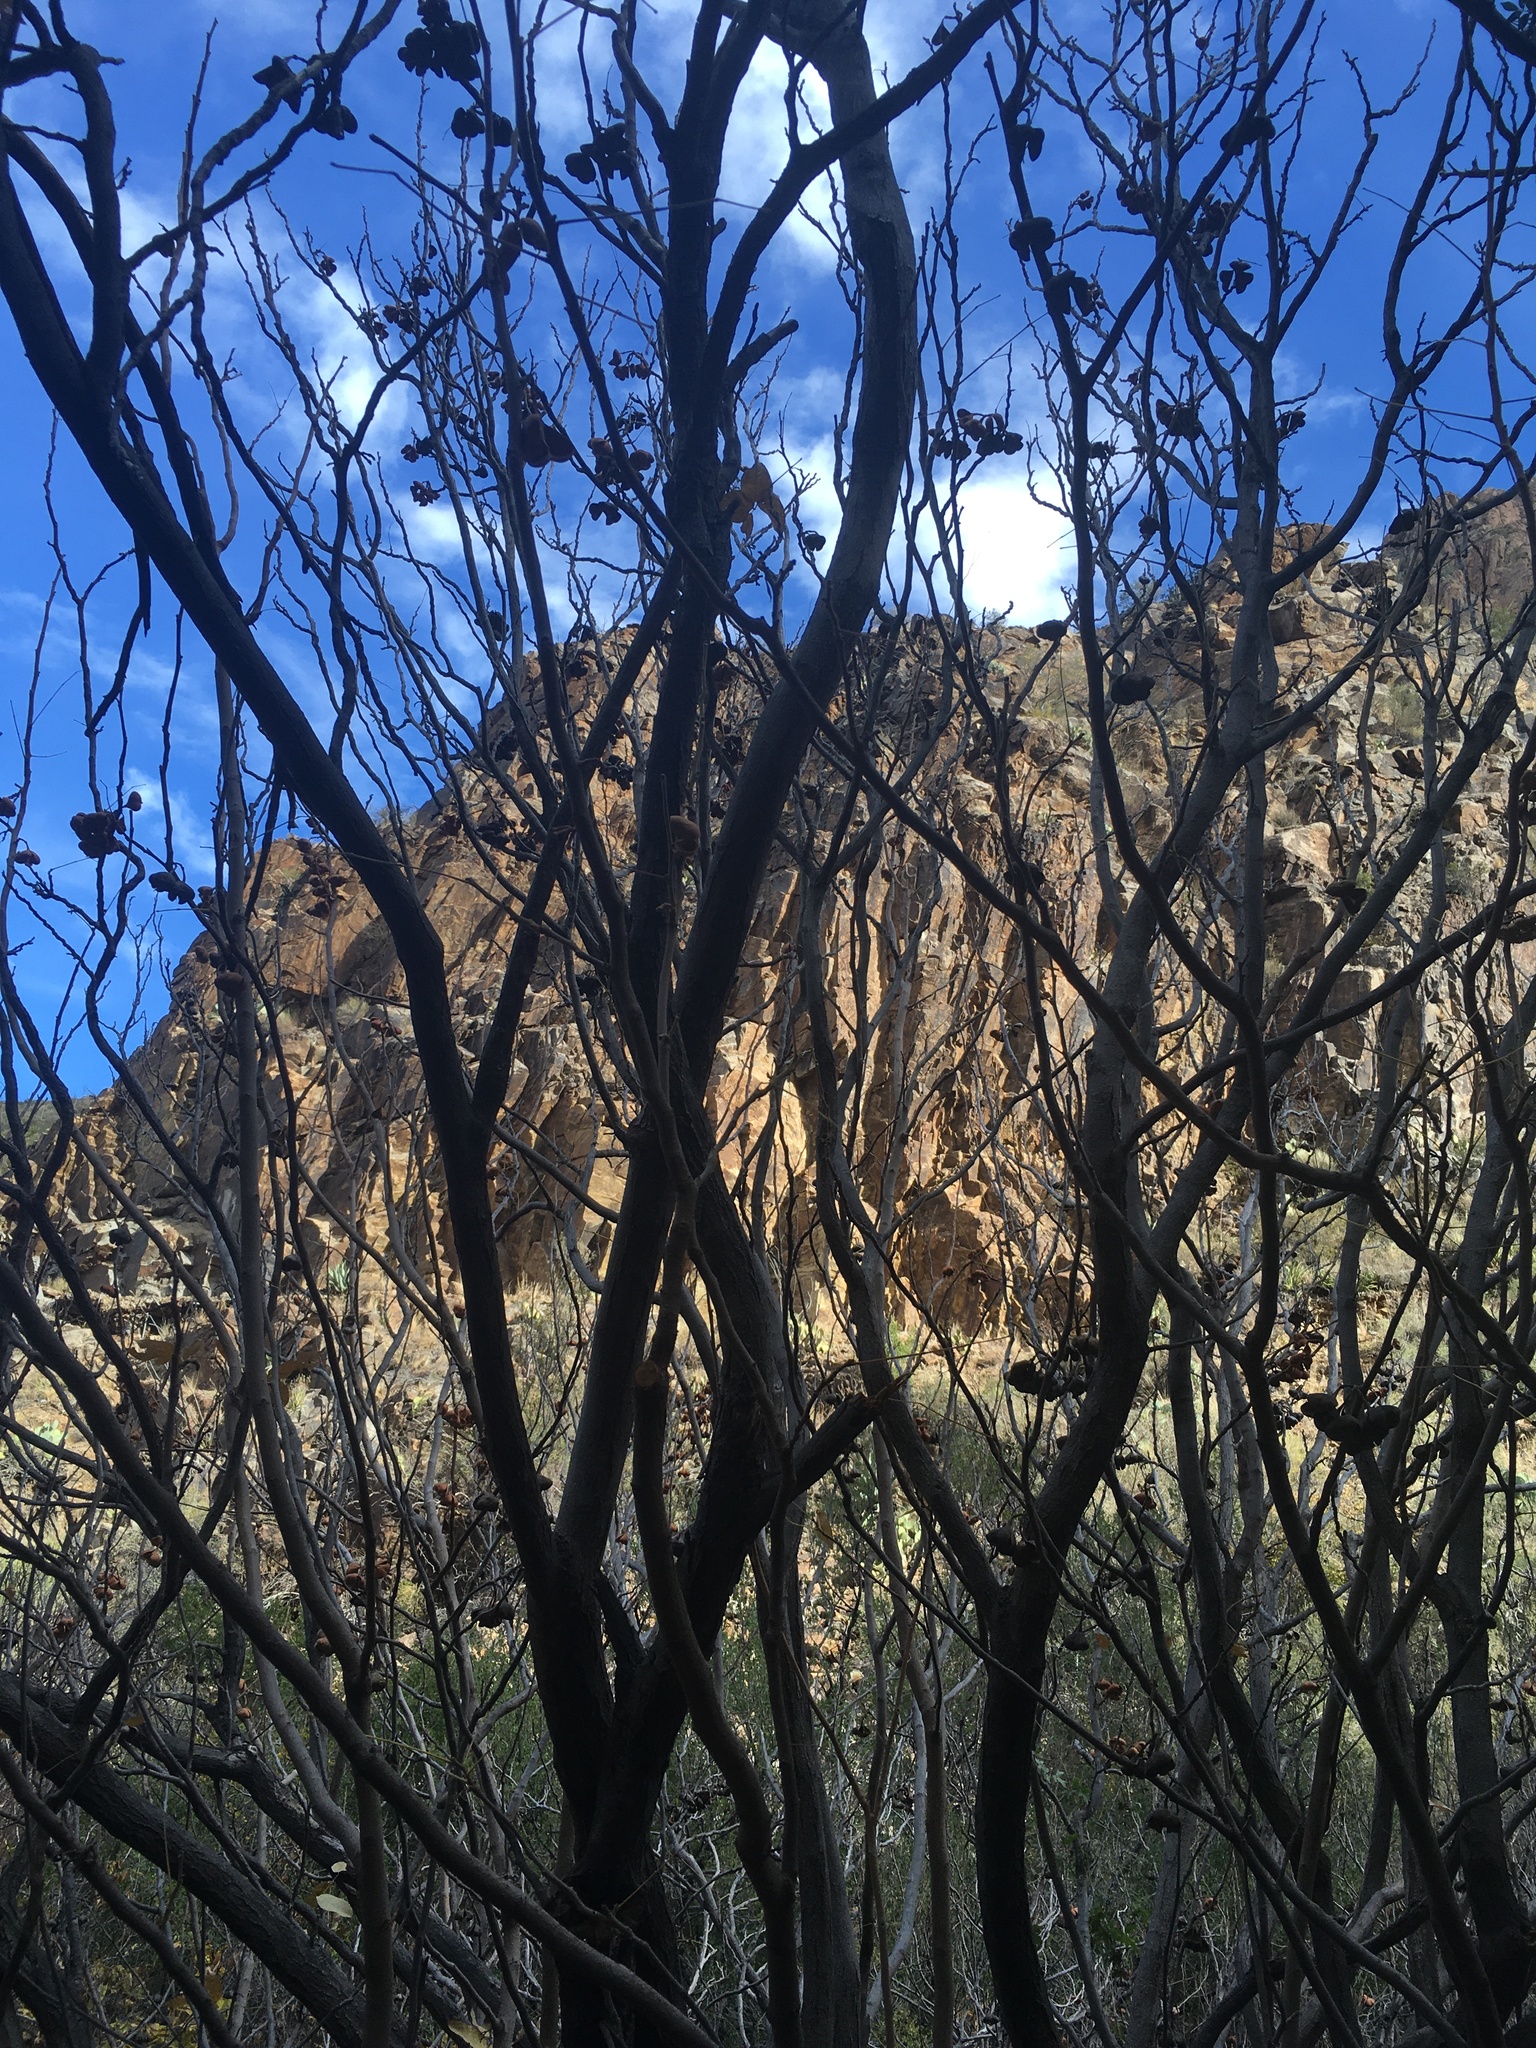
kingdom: Plantae
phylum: Tracheophyta
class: Magnoliopsida
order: Sapindales
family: Sapindaceae
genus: Ungnadia
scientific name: Ungnadia speciosa
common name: Texas-buckeye
